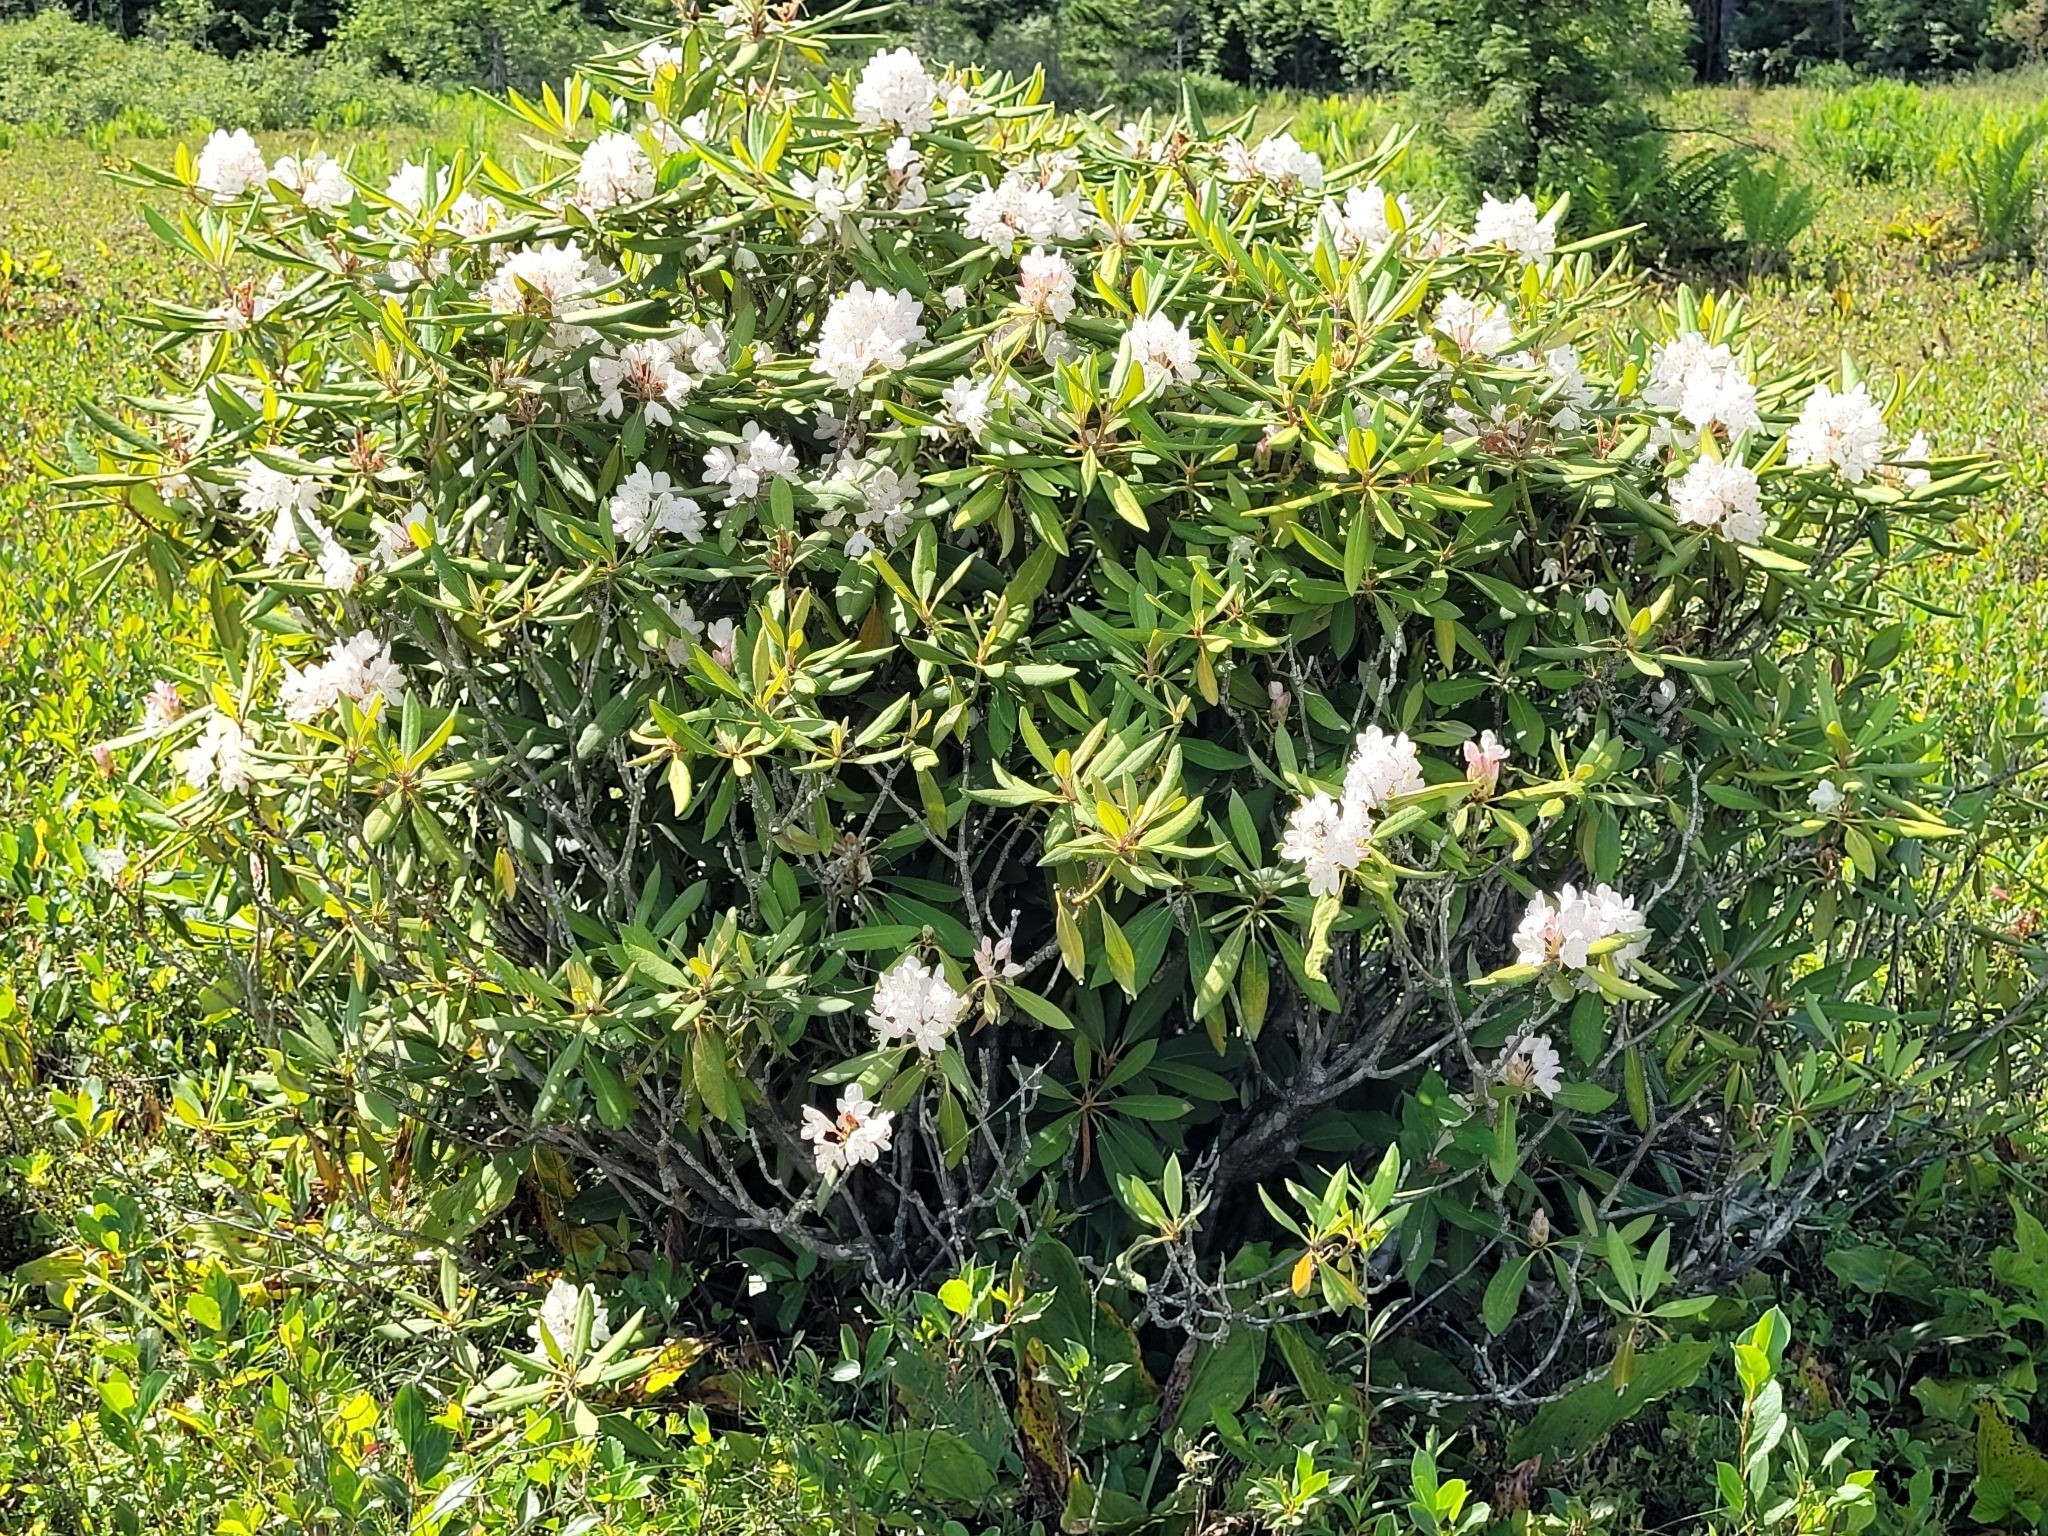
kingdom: Plantae
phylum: Tracheophyta
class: Magnoliopsida
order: Ericales
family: Ericaceae
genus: Rhododendron
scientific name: Rhododendron maximum
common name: Great rhododendron
